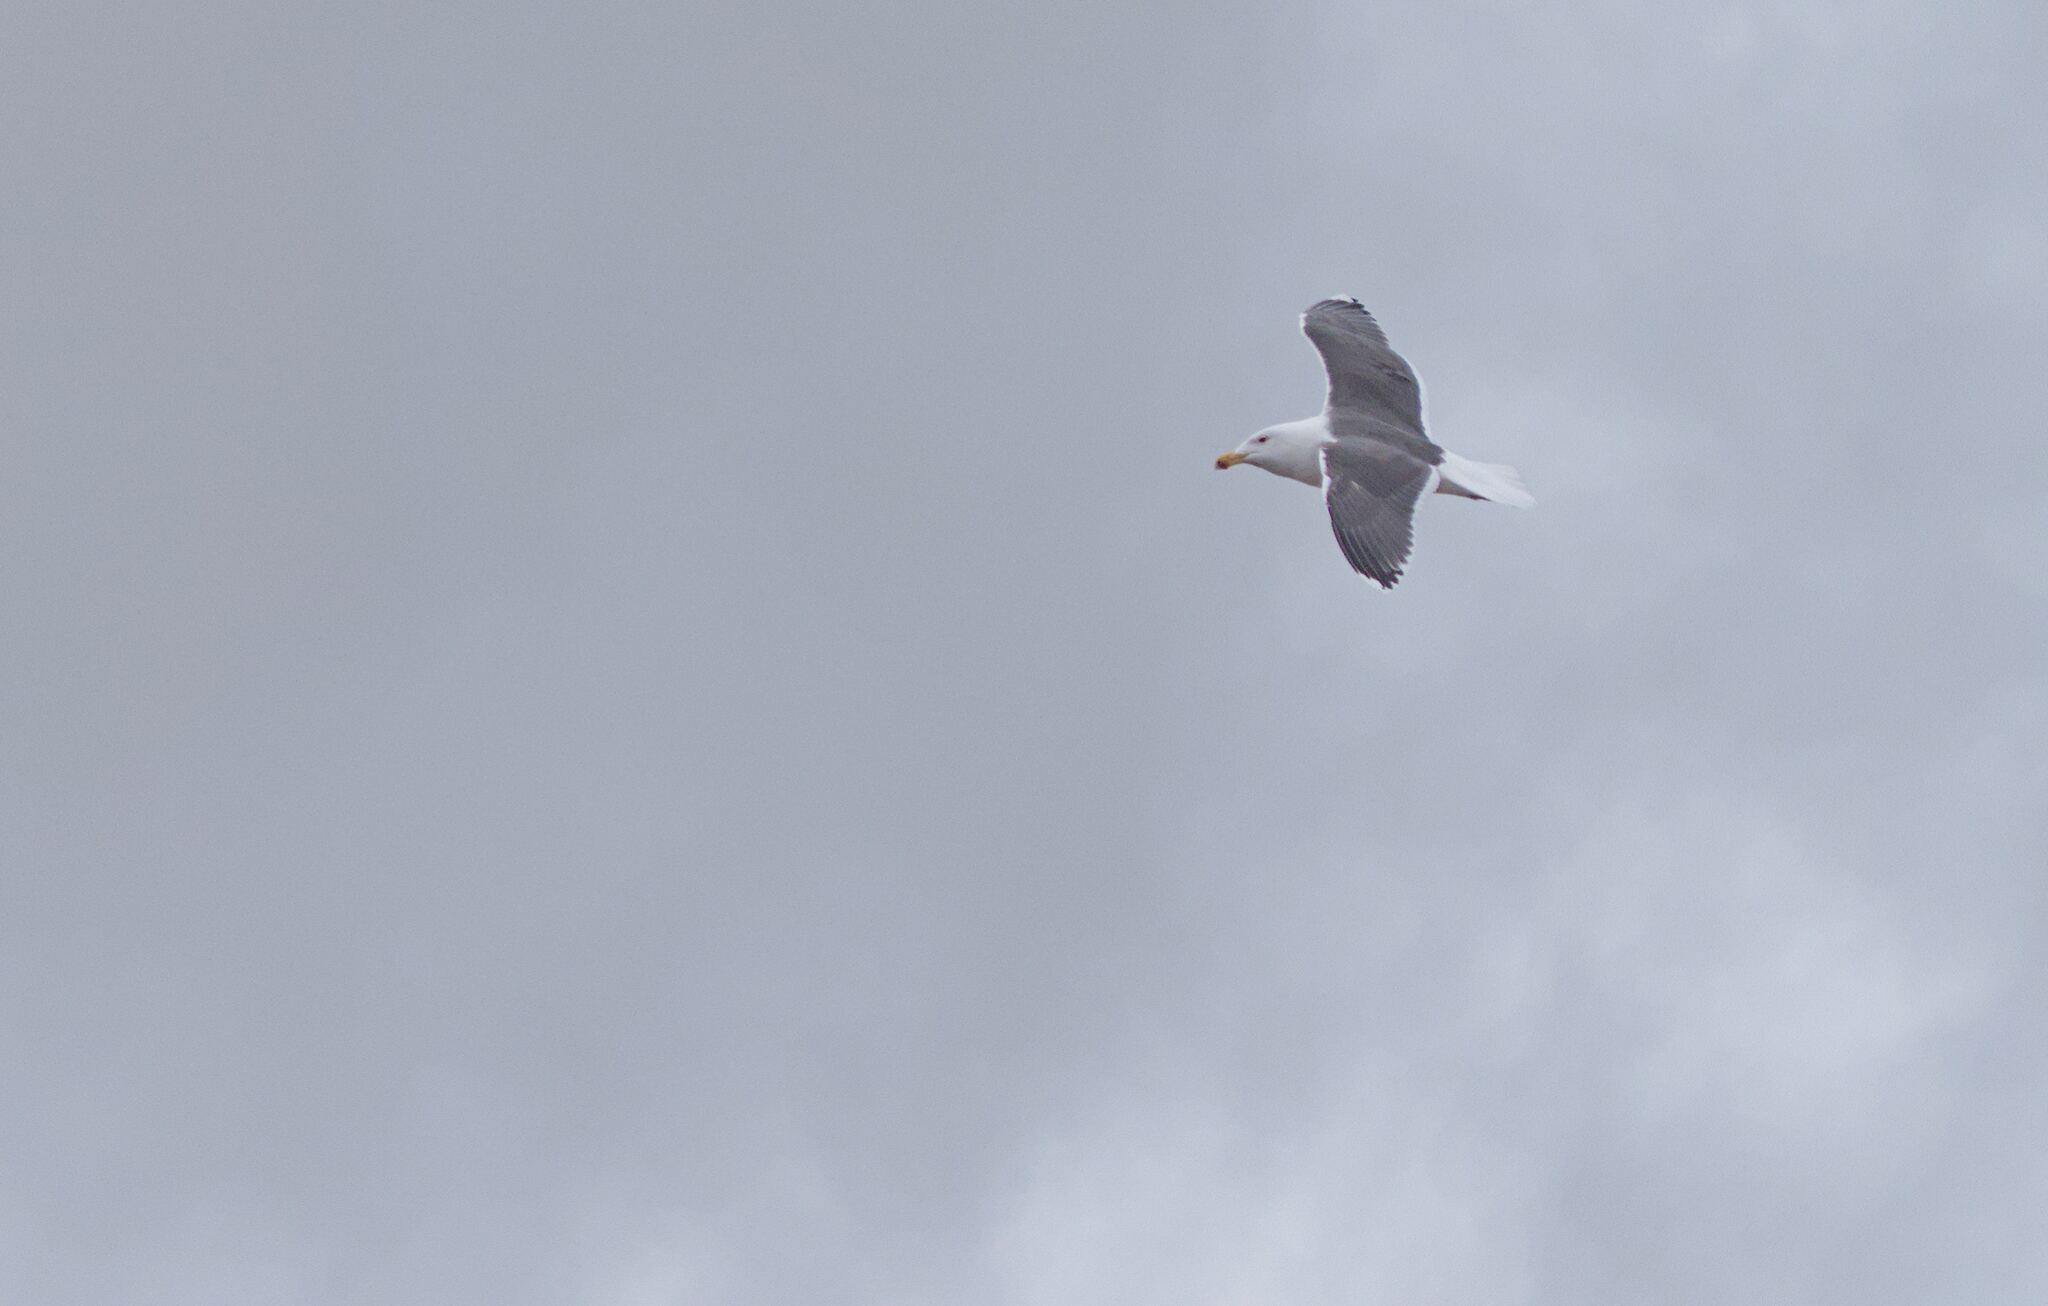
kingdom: Animalia
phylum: Chordata
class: Aves
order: Charadriiformes
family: Laridae
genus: Larus
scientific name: Larus marinus
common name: Great black-backed gull
